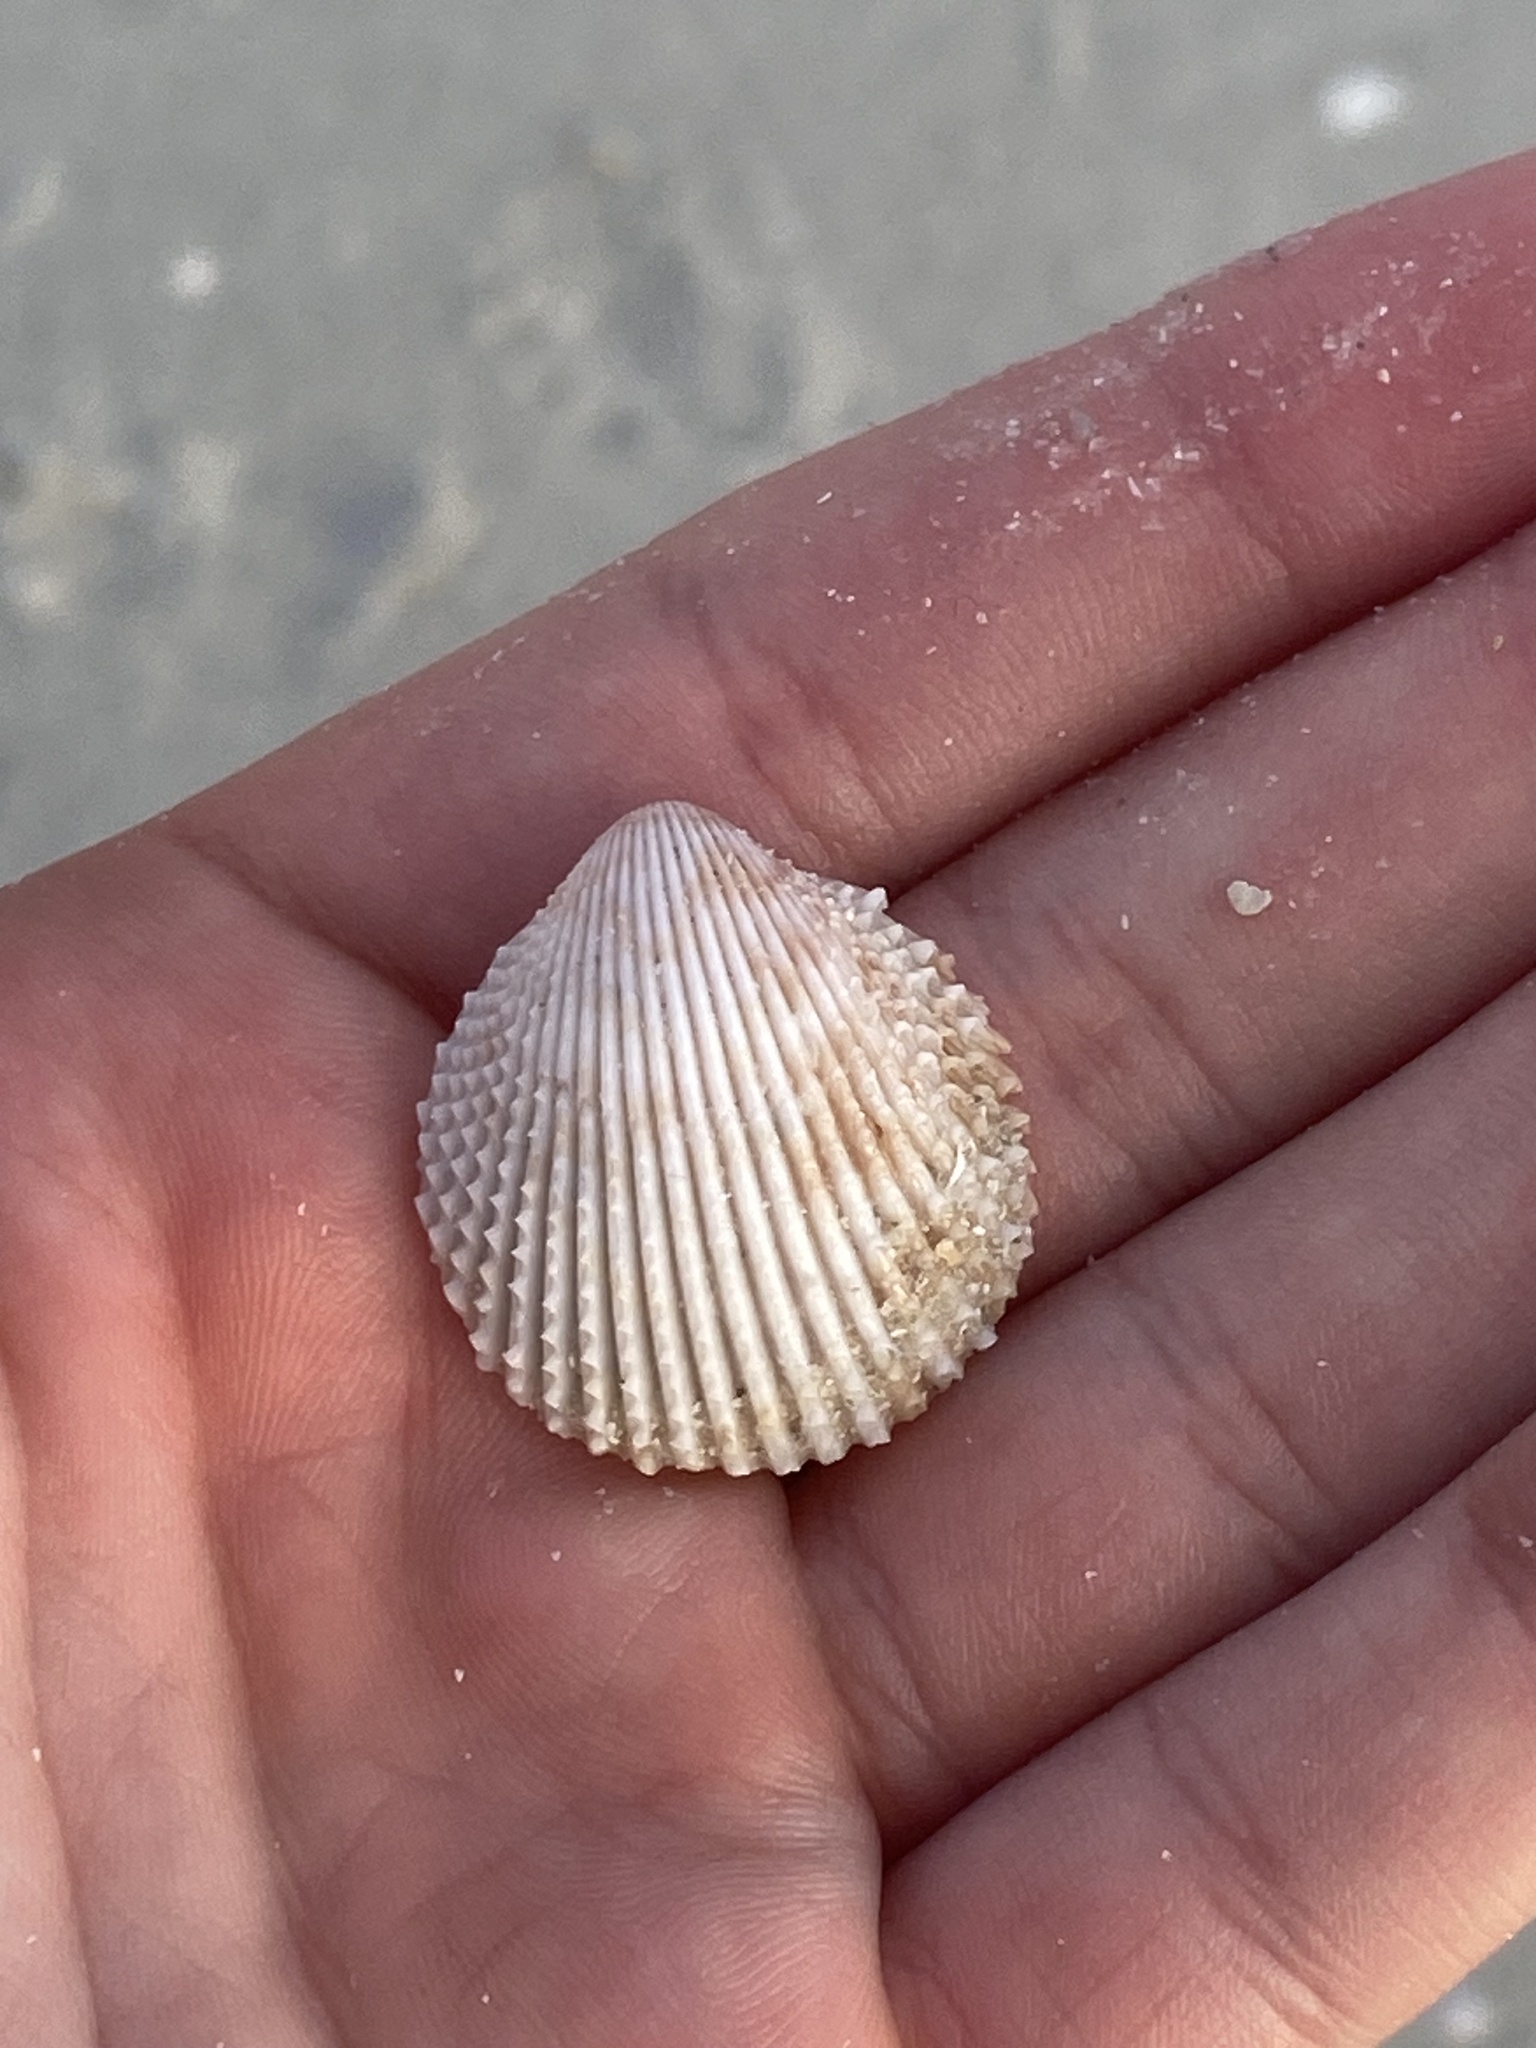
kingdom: Animalia
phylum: Mollusca
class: Bivalvia
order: Cardiida
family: Cardiidae
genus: Trachycardium
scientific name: Trachycardium egmontianum
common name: Florida pricklycockle
